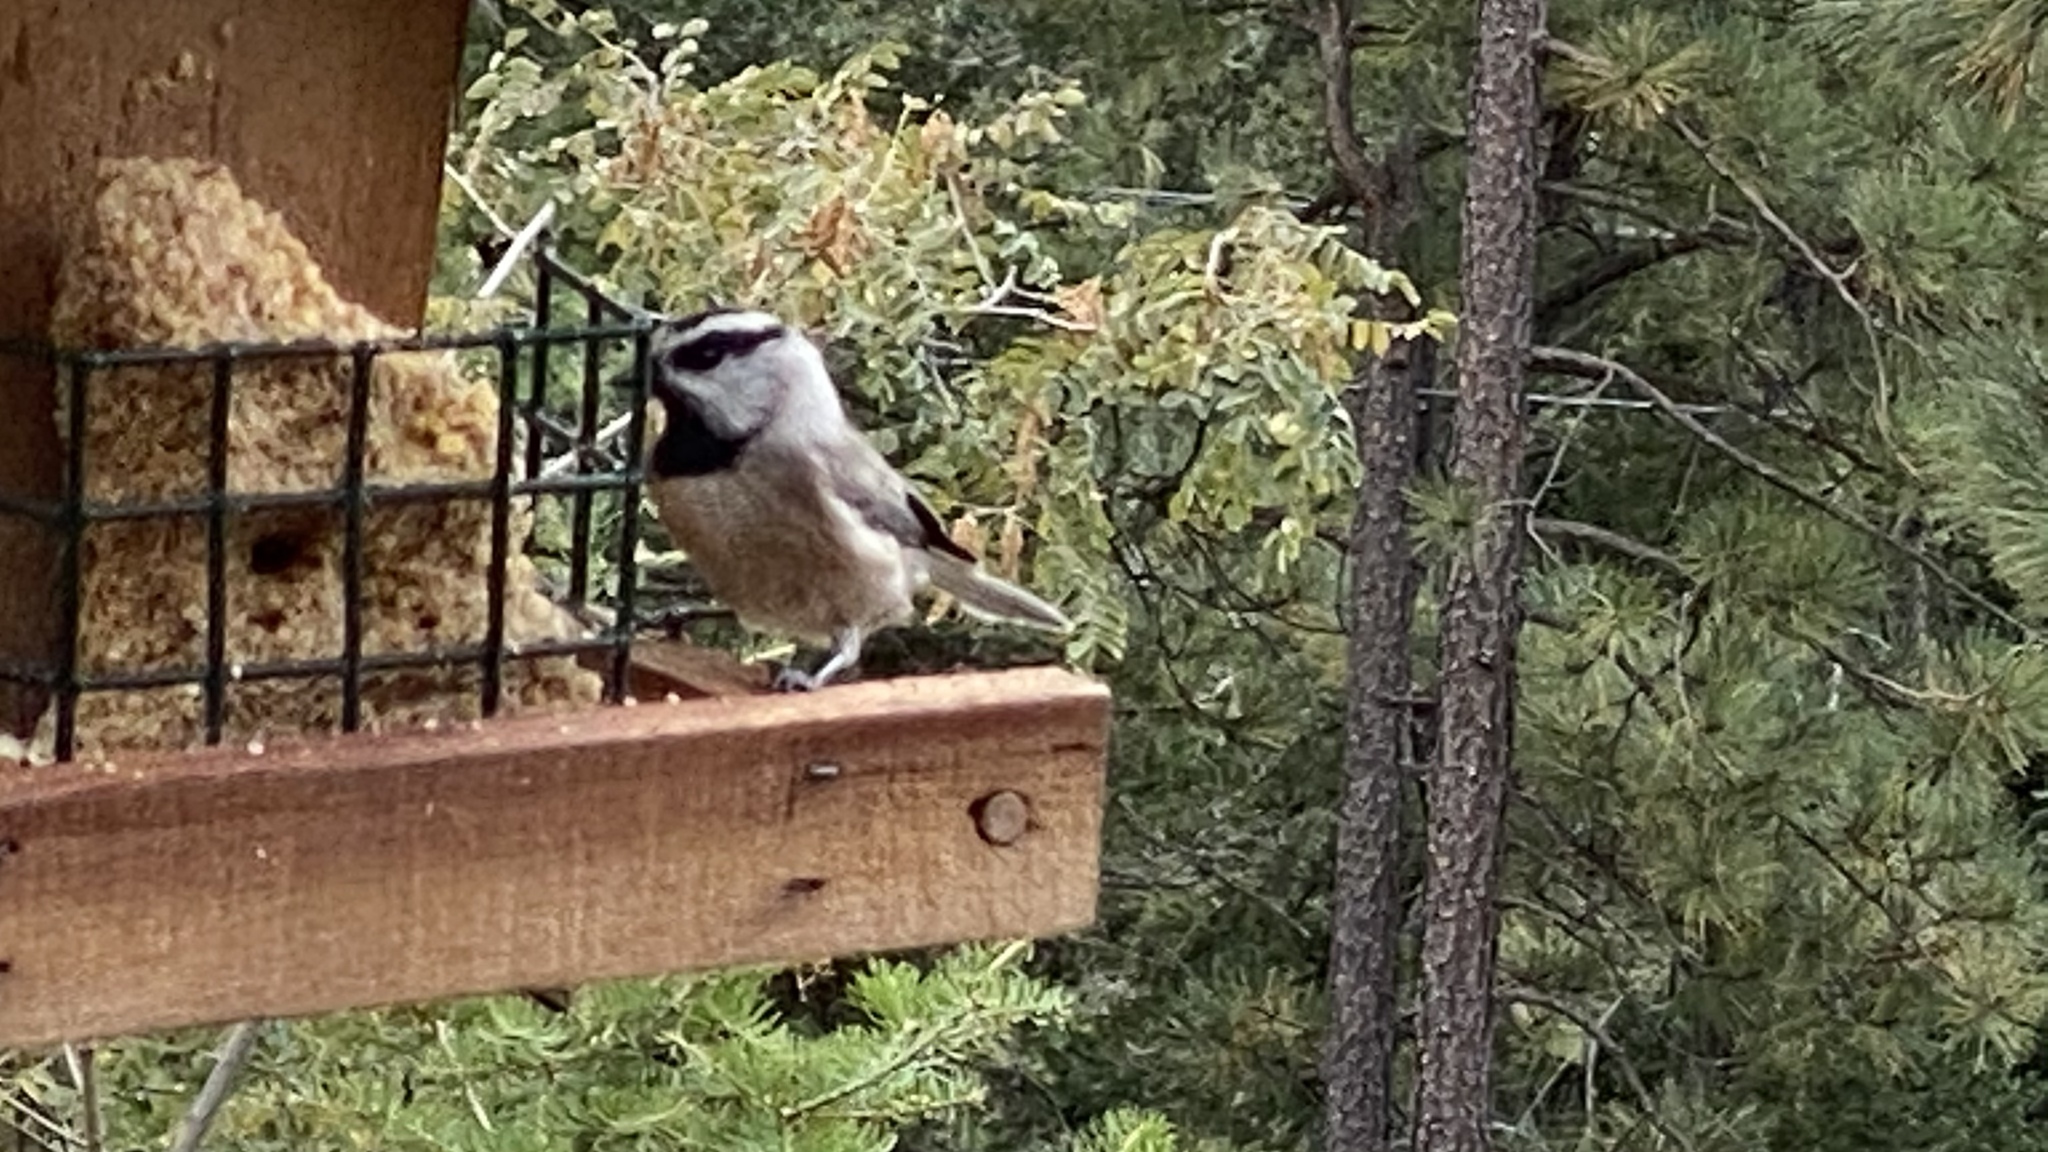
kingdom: Animalia
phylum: Chordata
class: Aves
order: Passeriformes
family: Paridae
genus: Poecile
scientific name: Poecile gambeli
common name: Mountain chickadee
